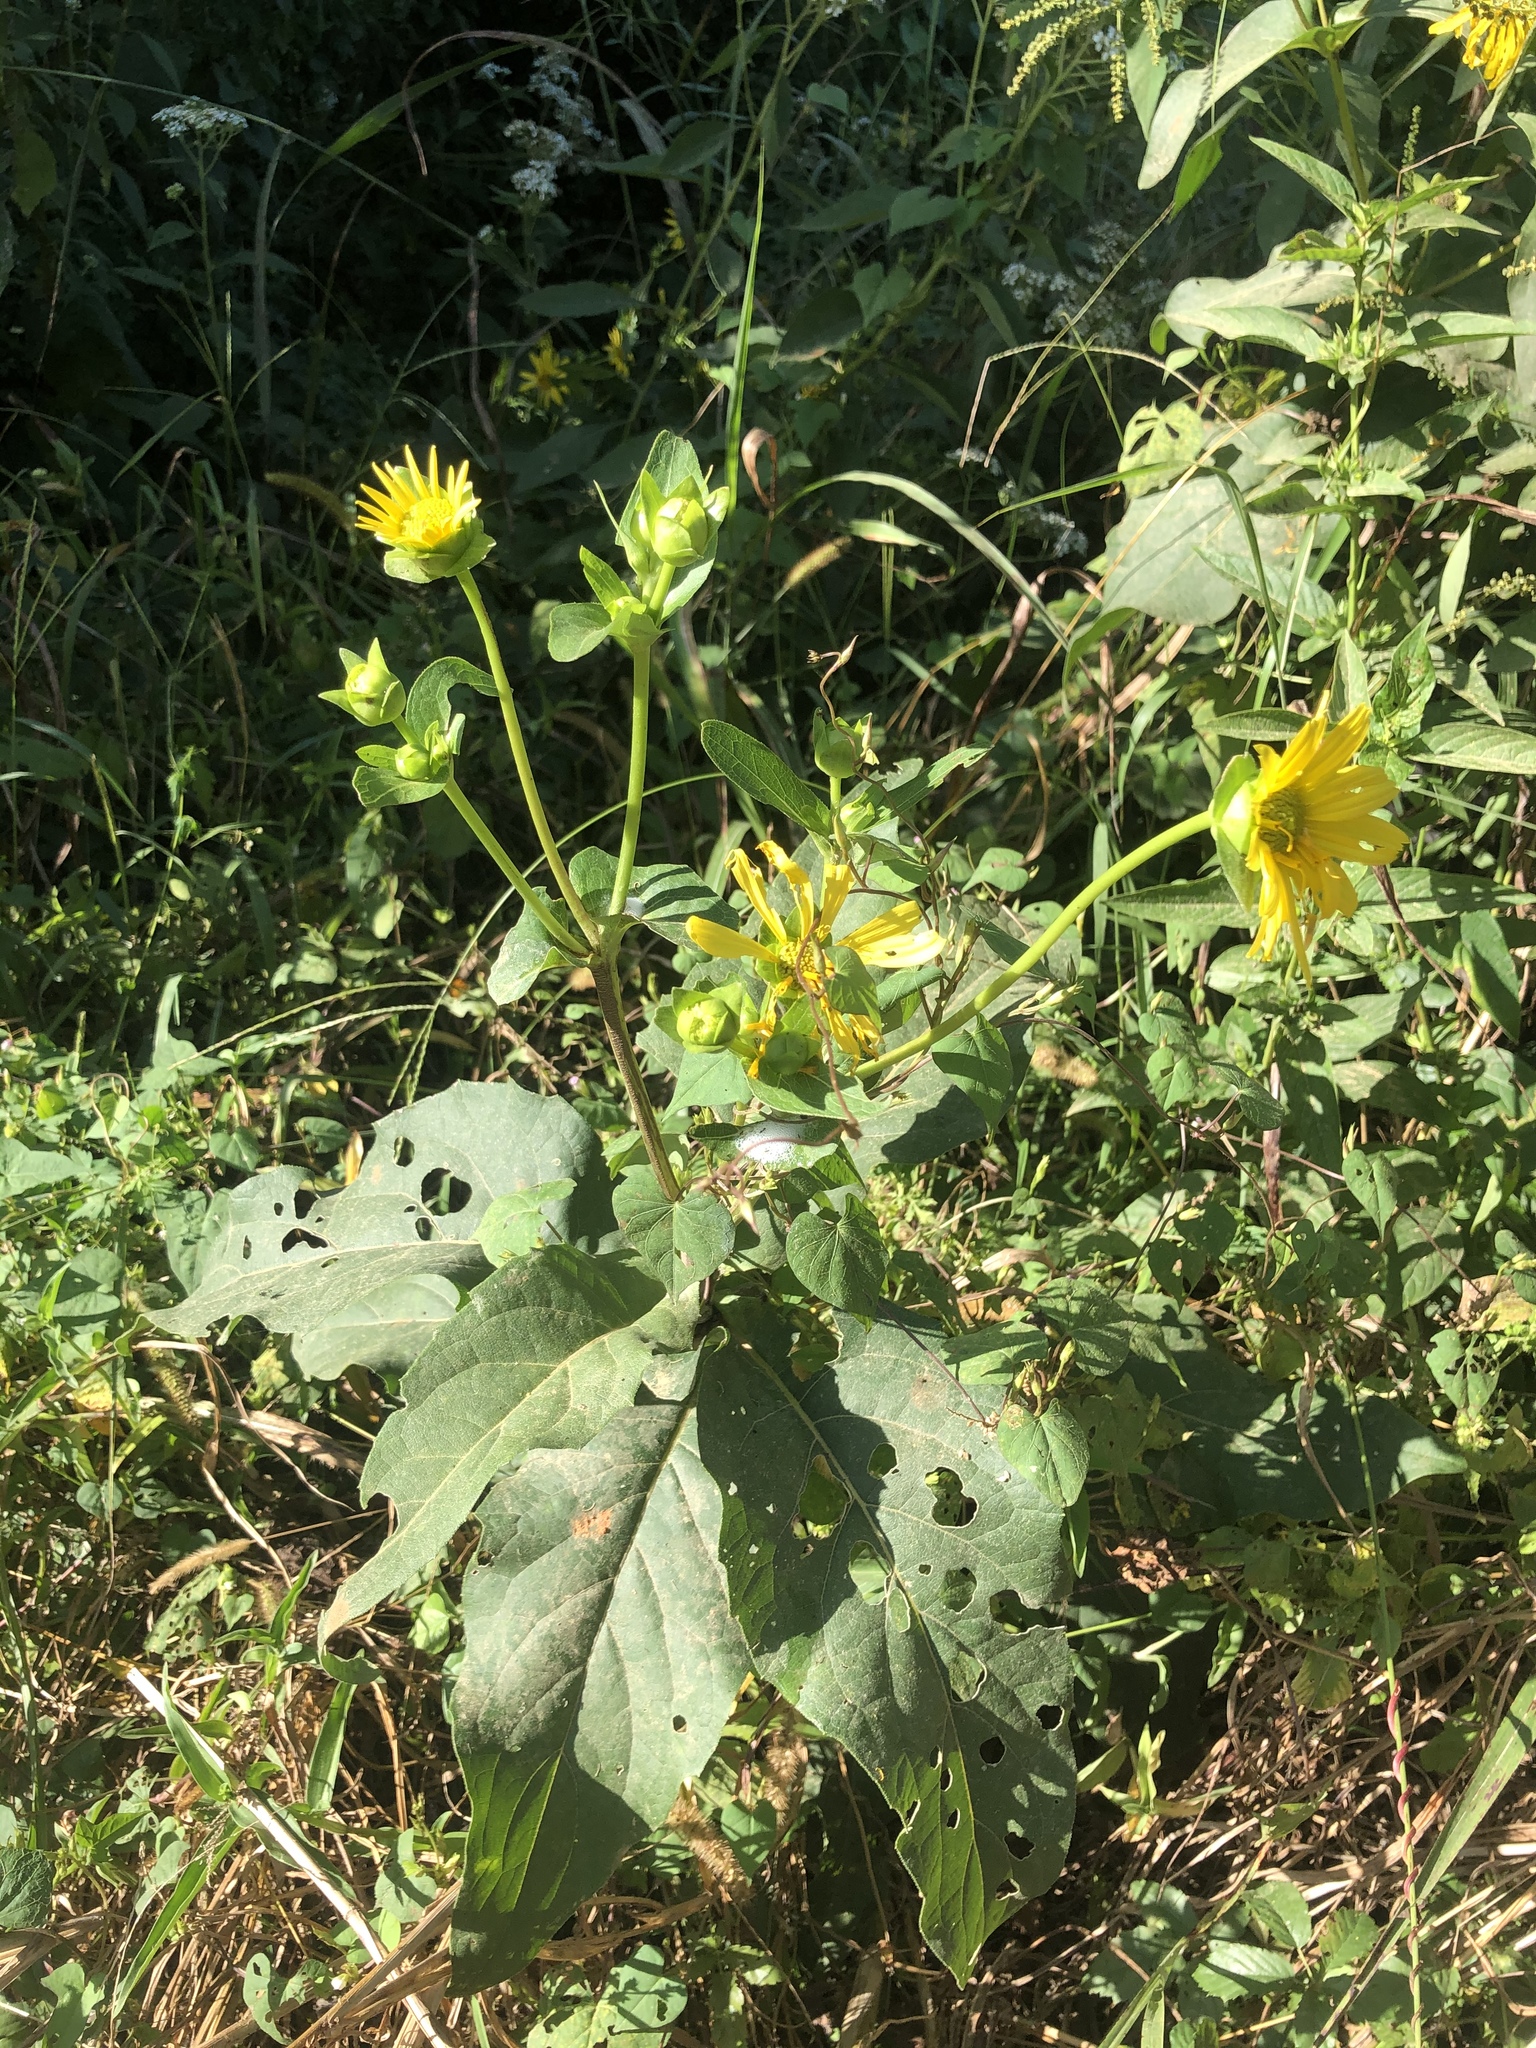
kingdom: Plantae
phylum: Tracheophyta
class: Magnoliopsida
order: Asterales
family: Asteraceae
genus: Silphium
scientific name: Silphium perfoliatum
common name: Cup-plant
